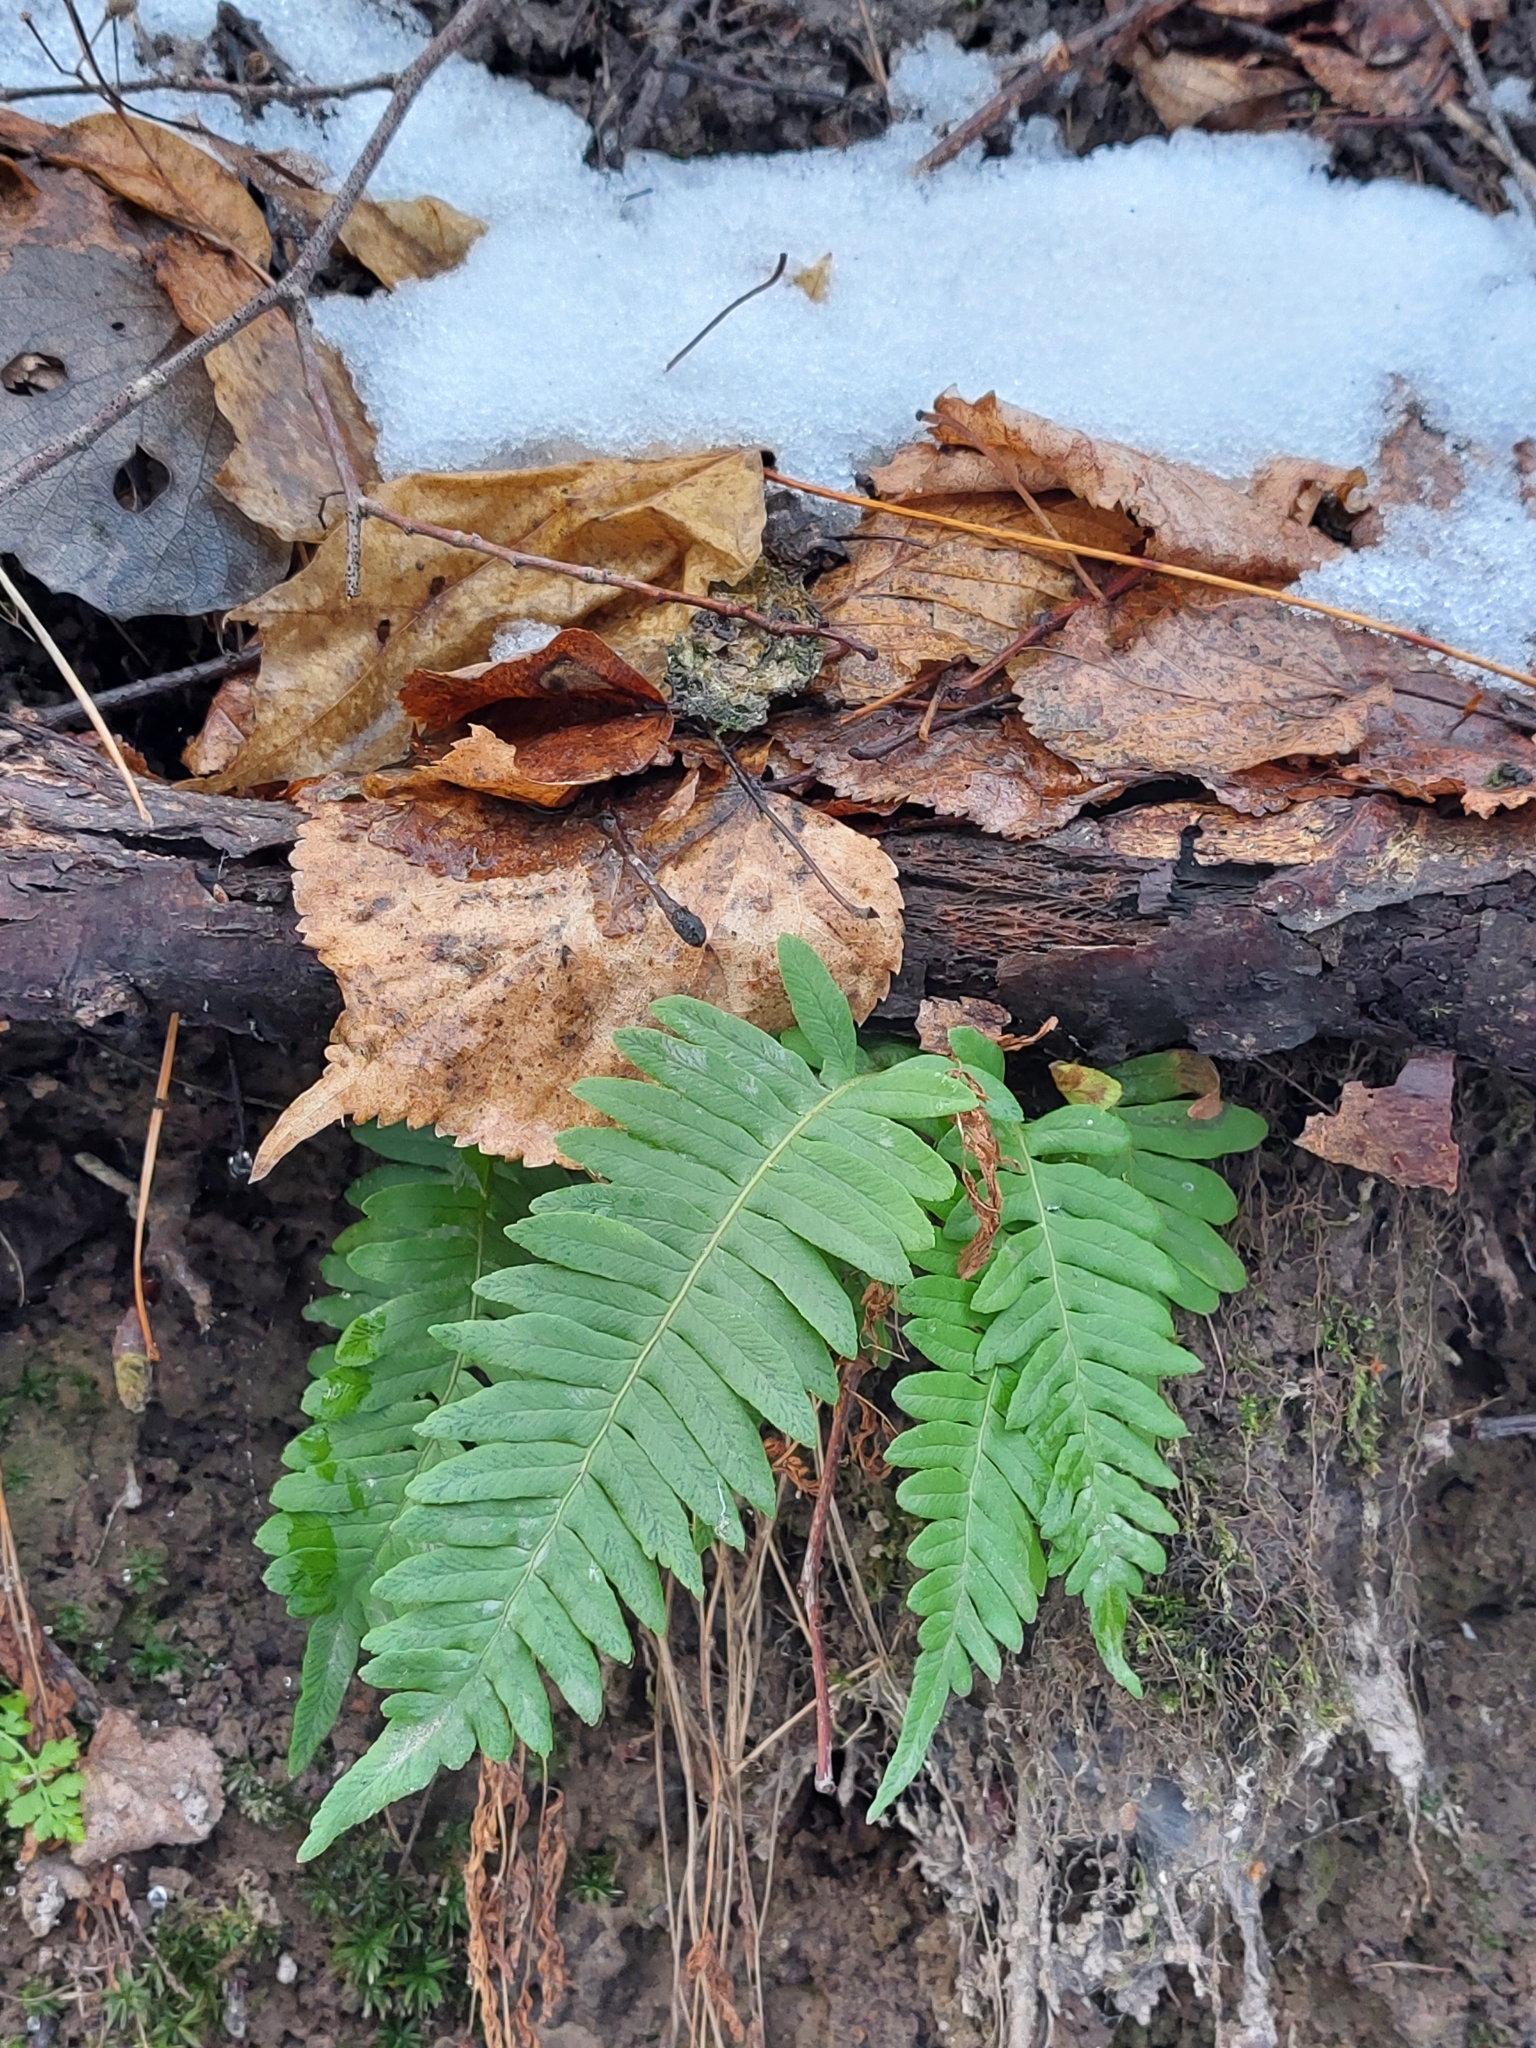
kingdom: Plantae
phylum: Tracheophyta
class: Polypodiopsida
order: Polypodiales
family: Polypodiaceae
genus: Polypodium
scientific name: Polypodium vulgare
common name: Common polypody
